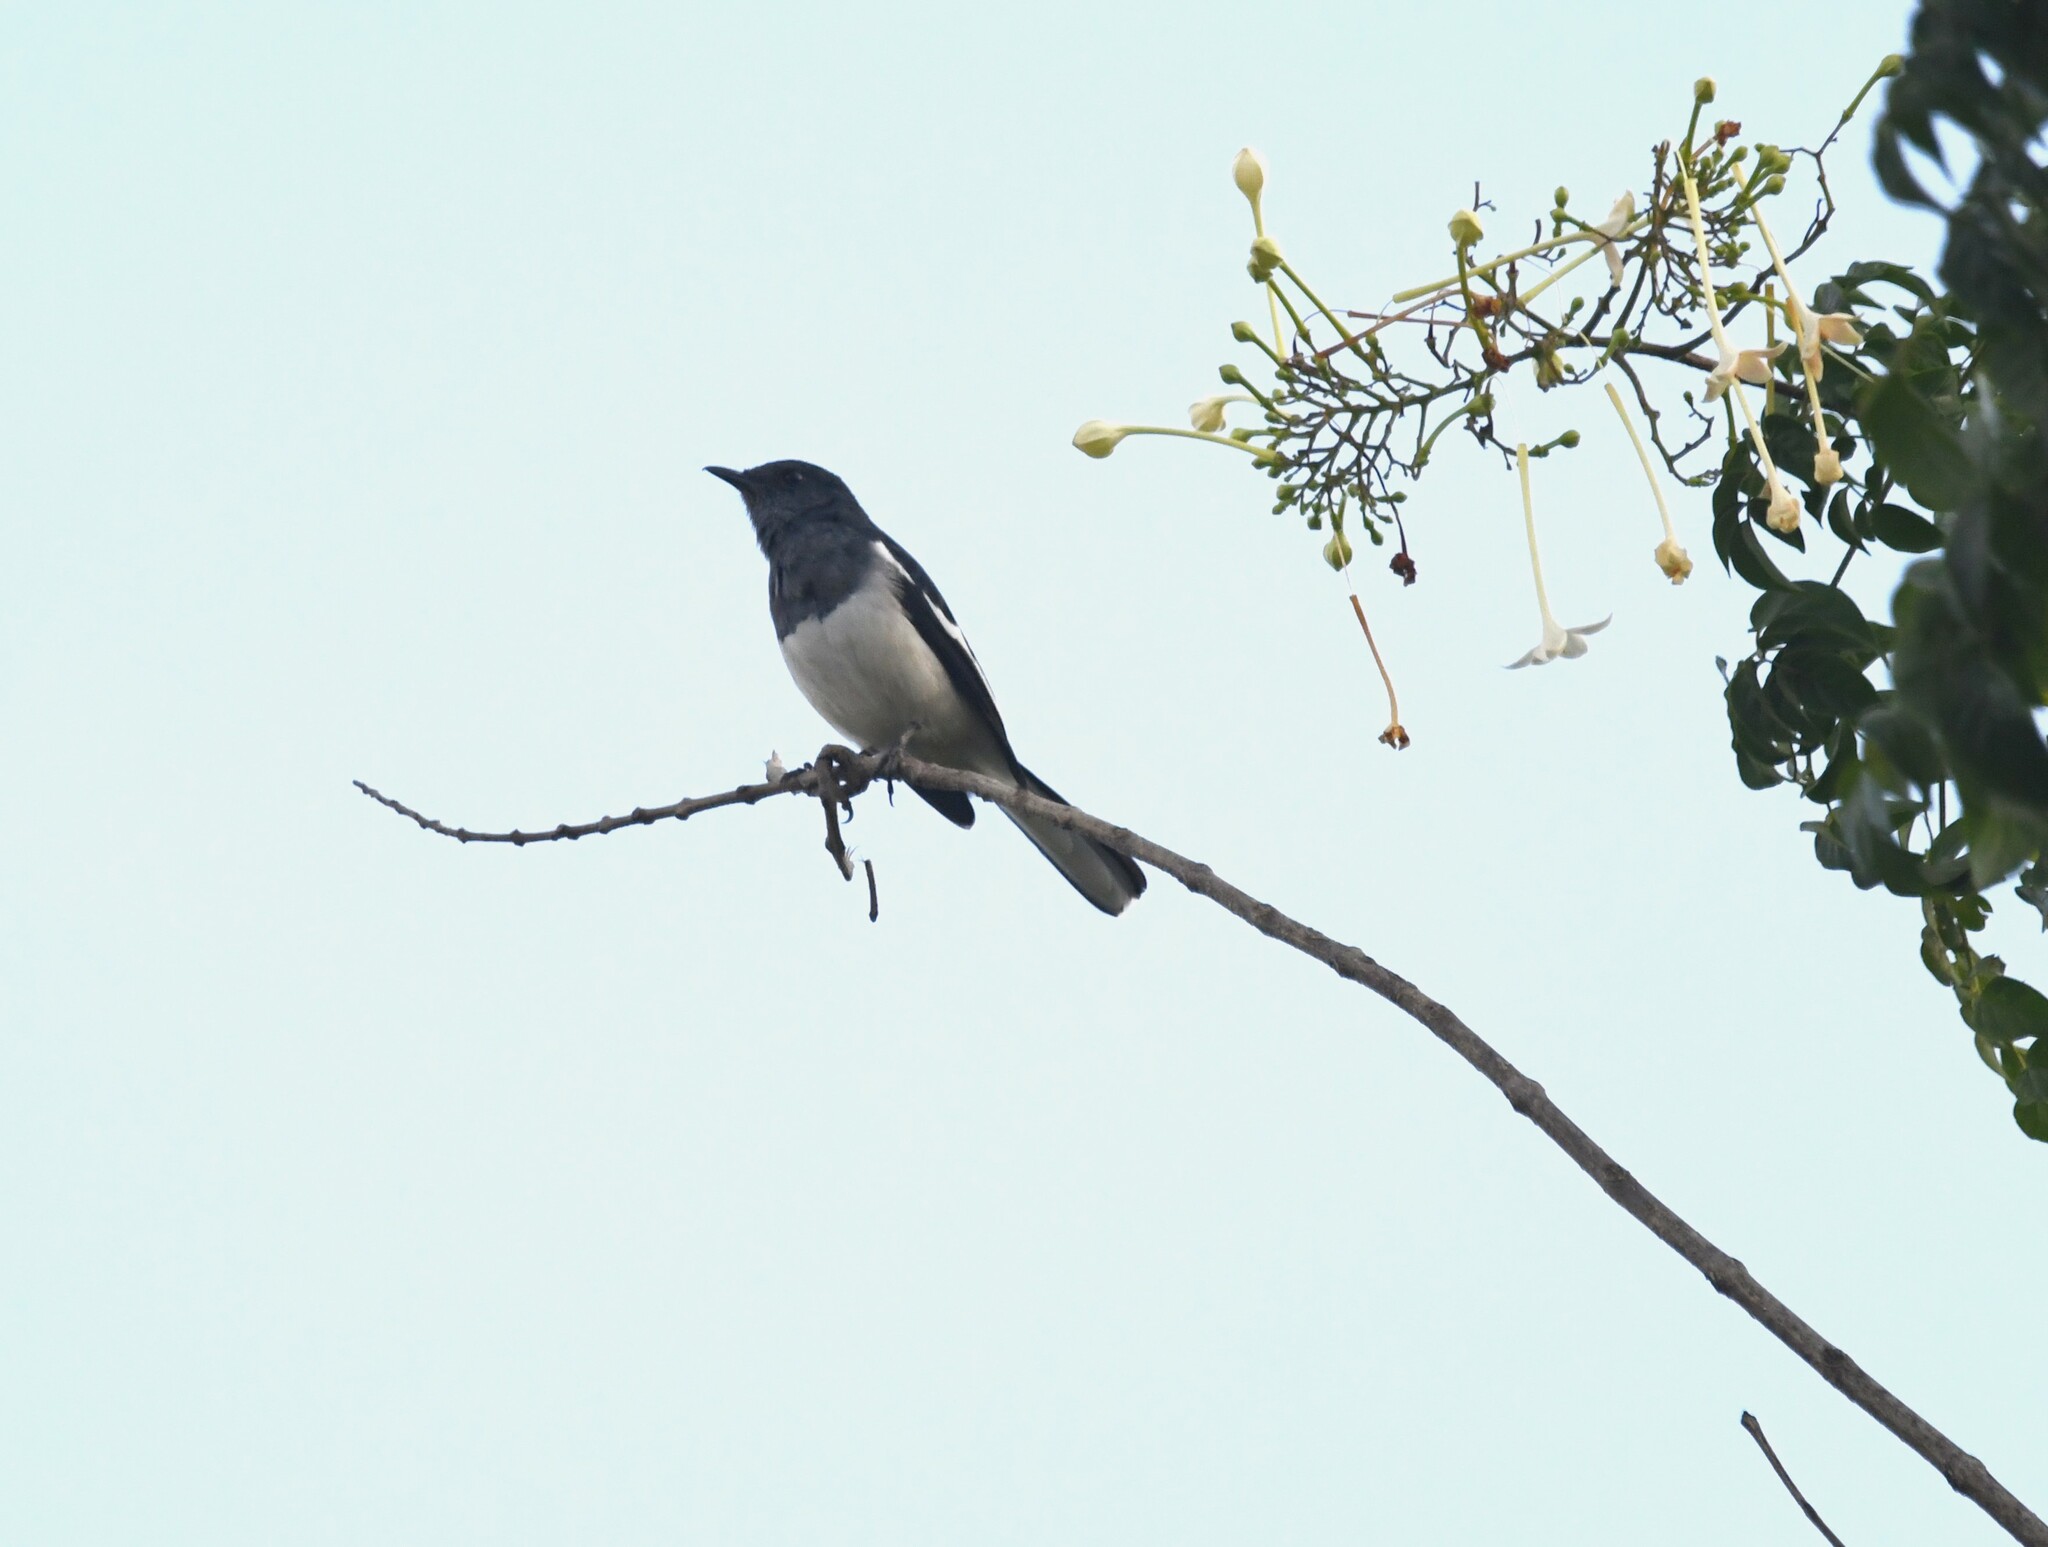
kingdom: Animalia
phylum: Chordata
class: Aves
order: Passeriformes
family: Muscicapidae
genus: Copsychus
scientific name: Copsychus saularis
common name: Oriental magpie-robin
